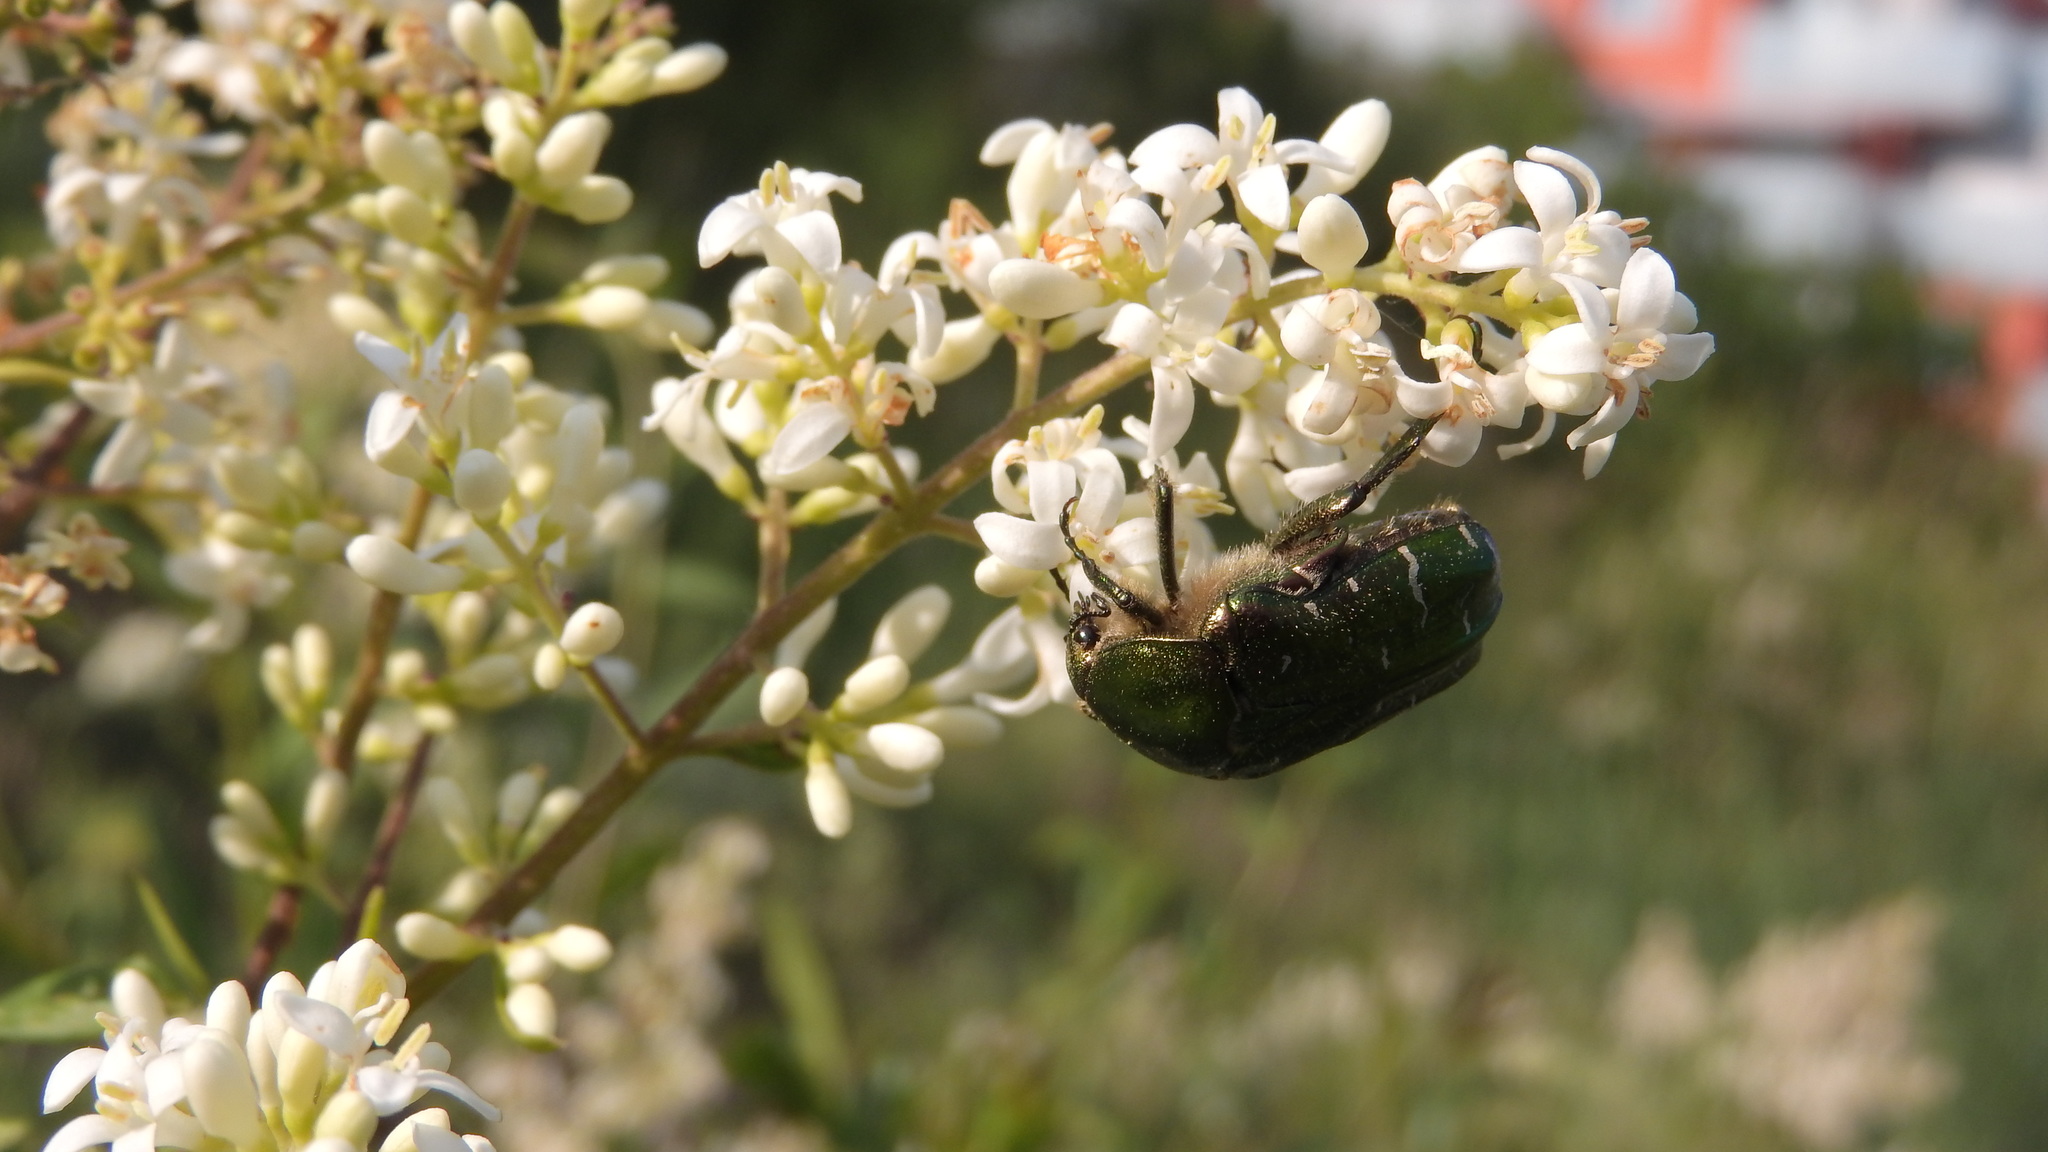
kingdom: Animalia
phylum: Arthropoda
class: Insecta
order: Coleoptera
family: Scarabaeidae
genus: Cetonia
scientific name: Cetonia aurata
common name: Rose chafer
